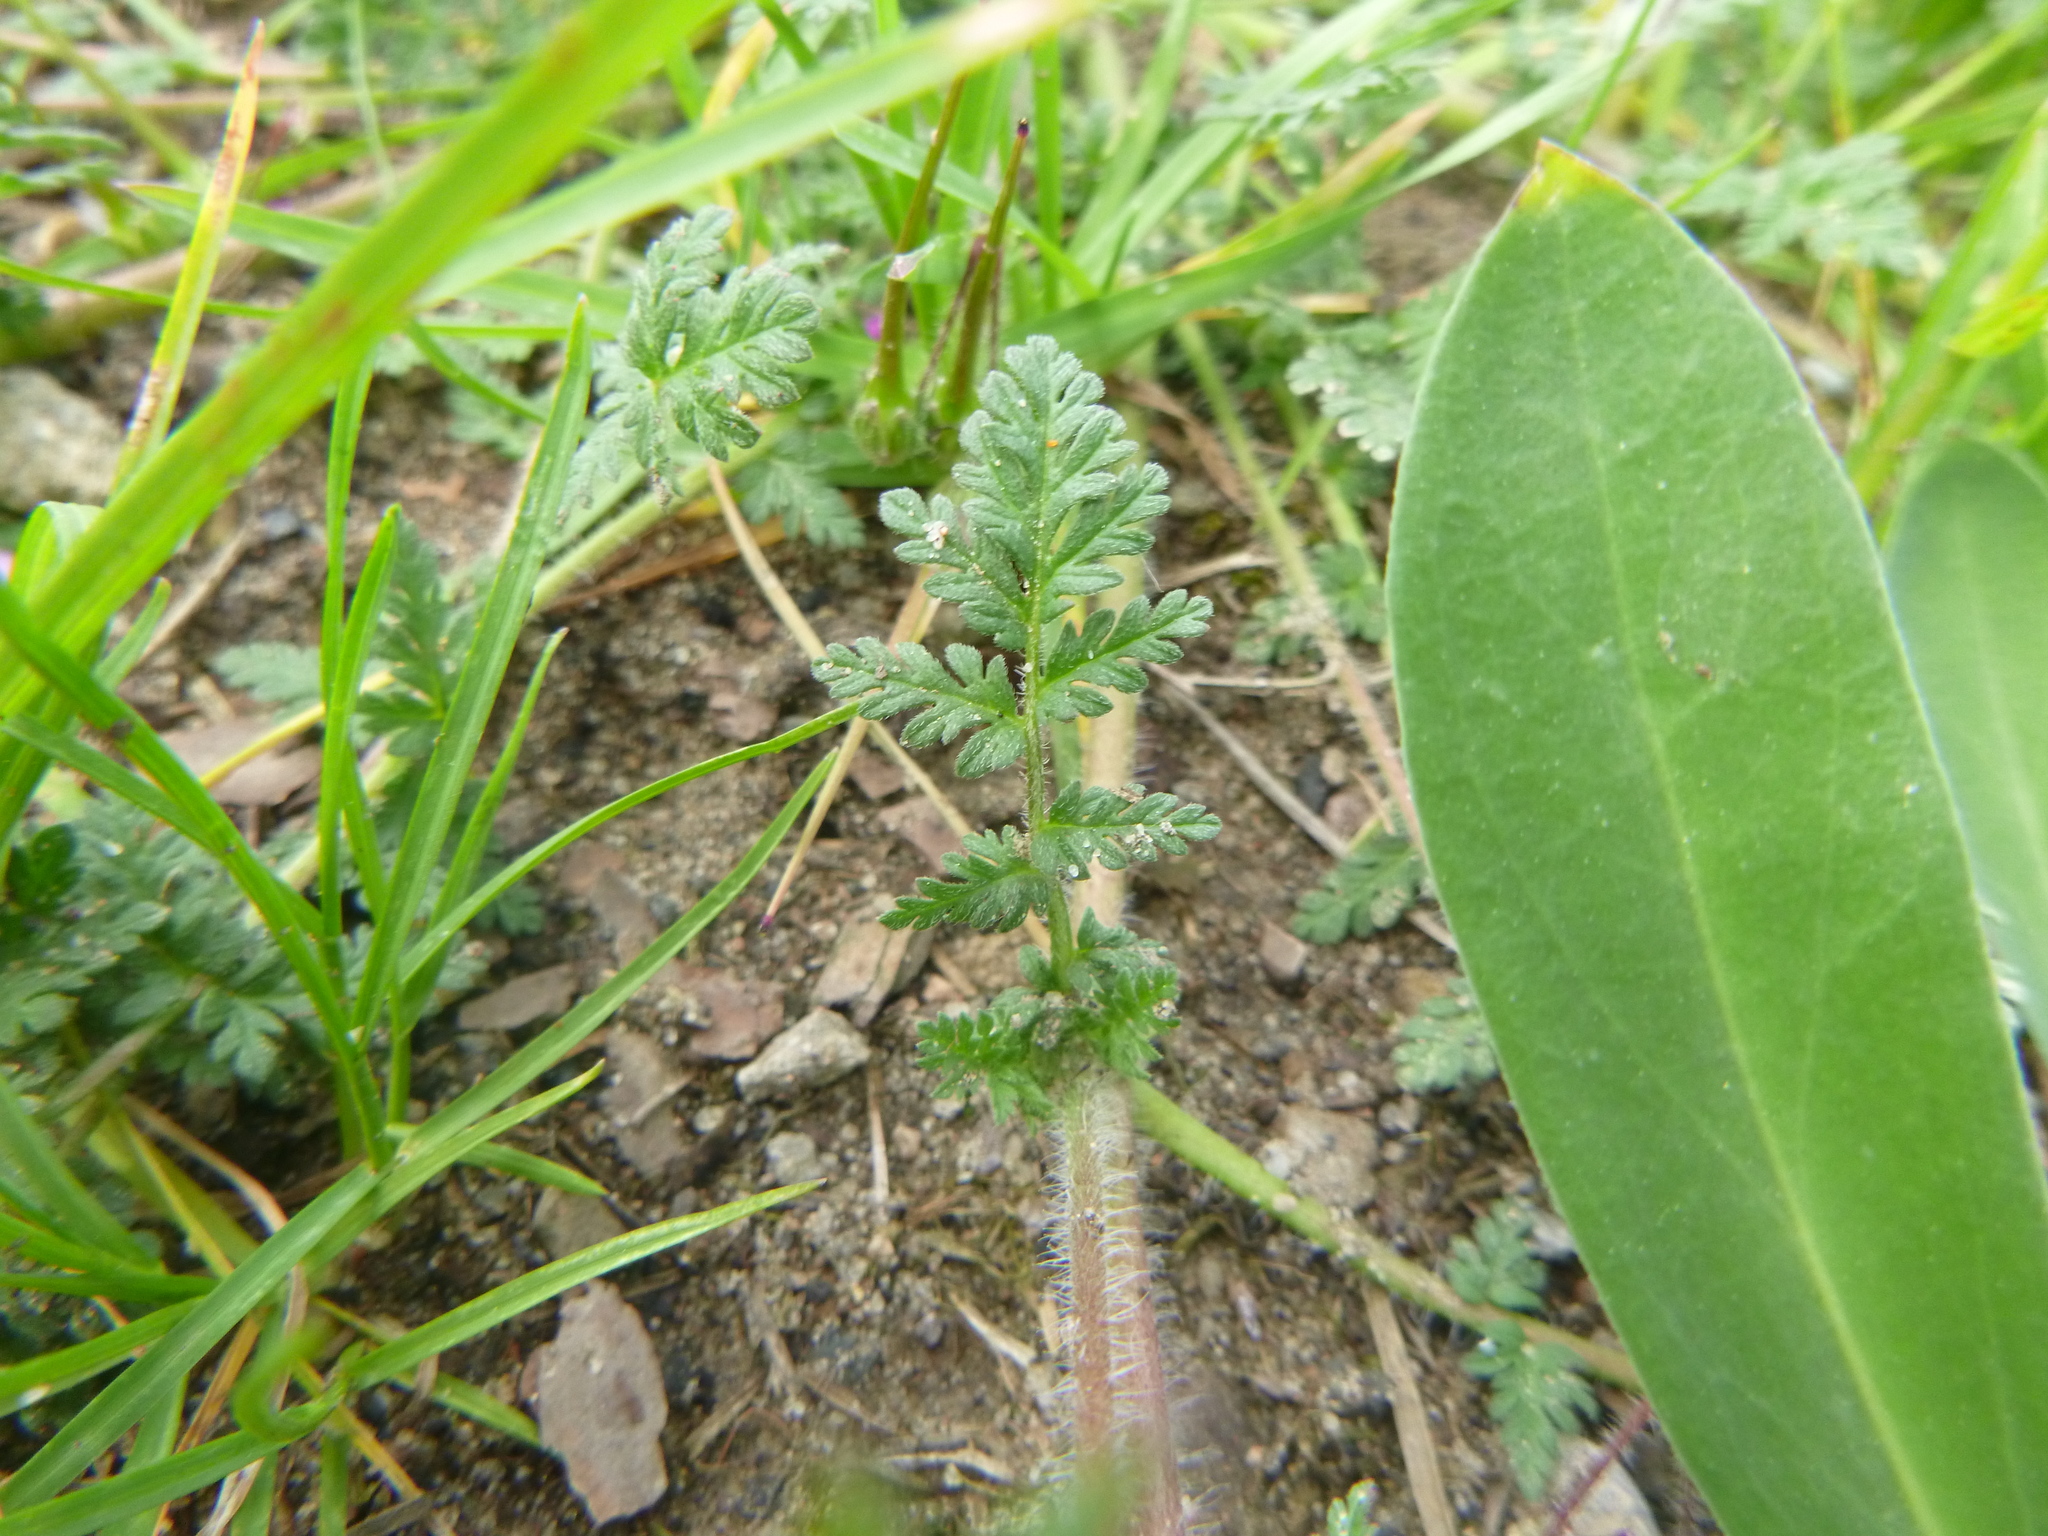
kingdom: Plantae
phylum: Tracheophyta
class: Magnoliopsida
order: Geraniales
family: Geraniaceae
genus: Erodium
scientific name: Erodium cicutarium
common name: Common stork's-bill
